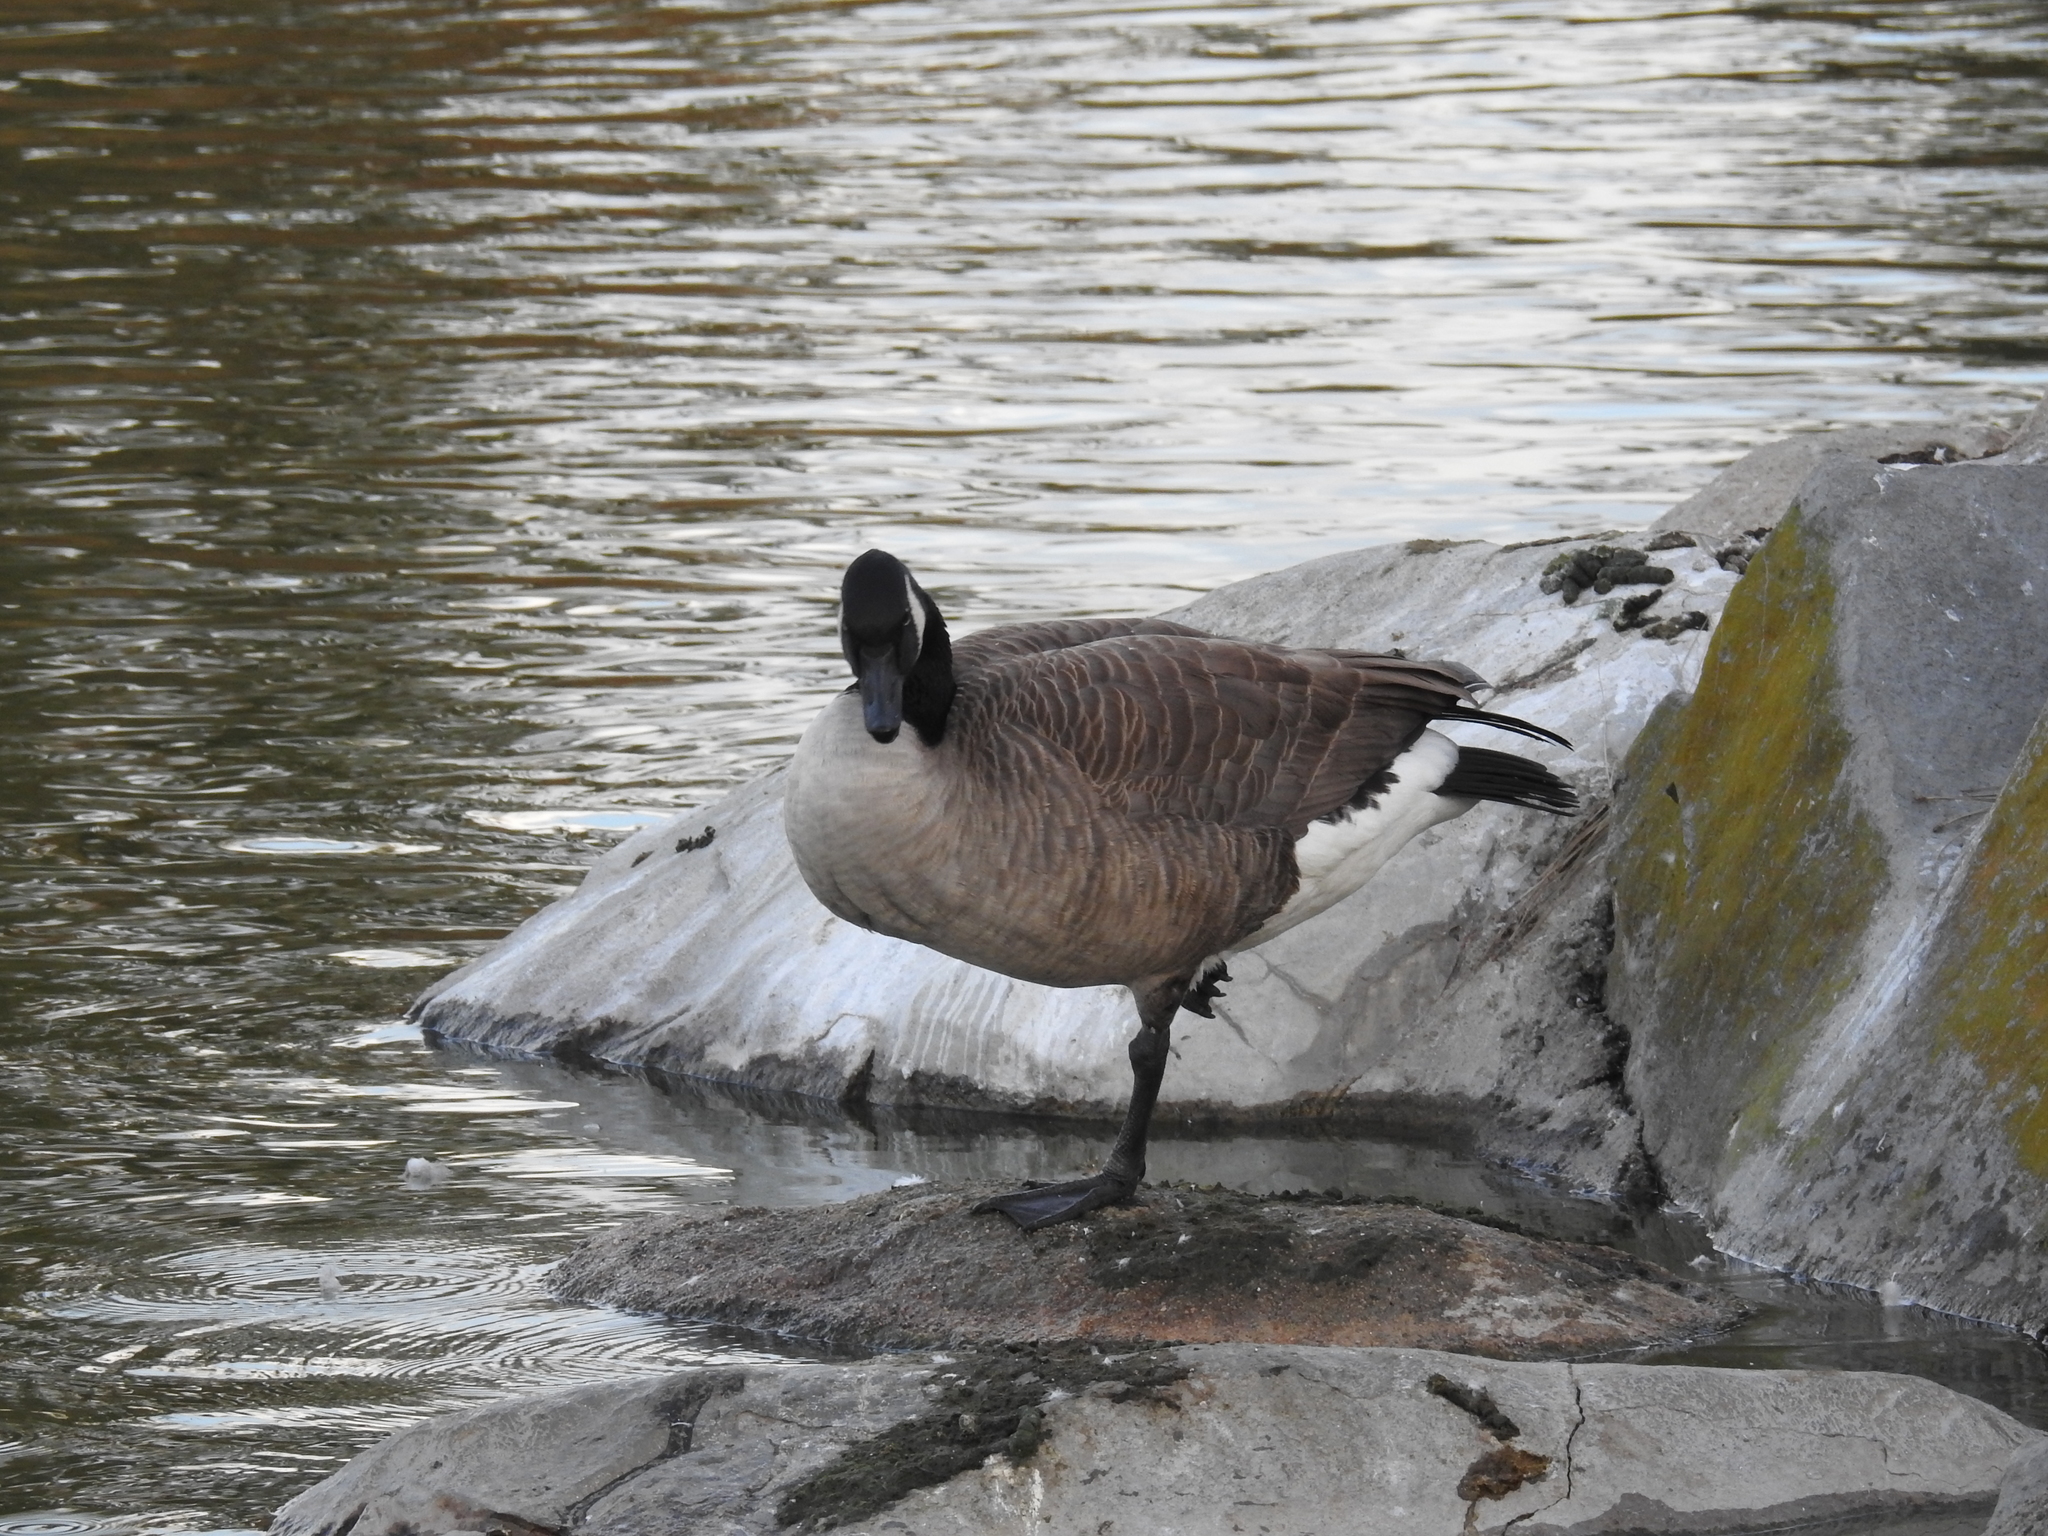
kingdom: Animalia
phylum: Chordata
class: Aves
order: Anseriformes
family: Anatidae
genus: Branta
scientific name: Branta canadensis
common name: Canada goose
